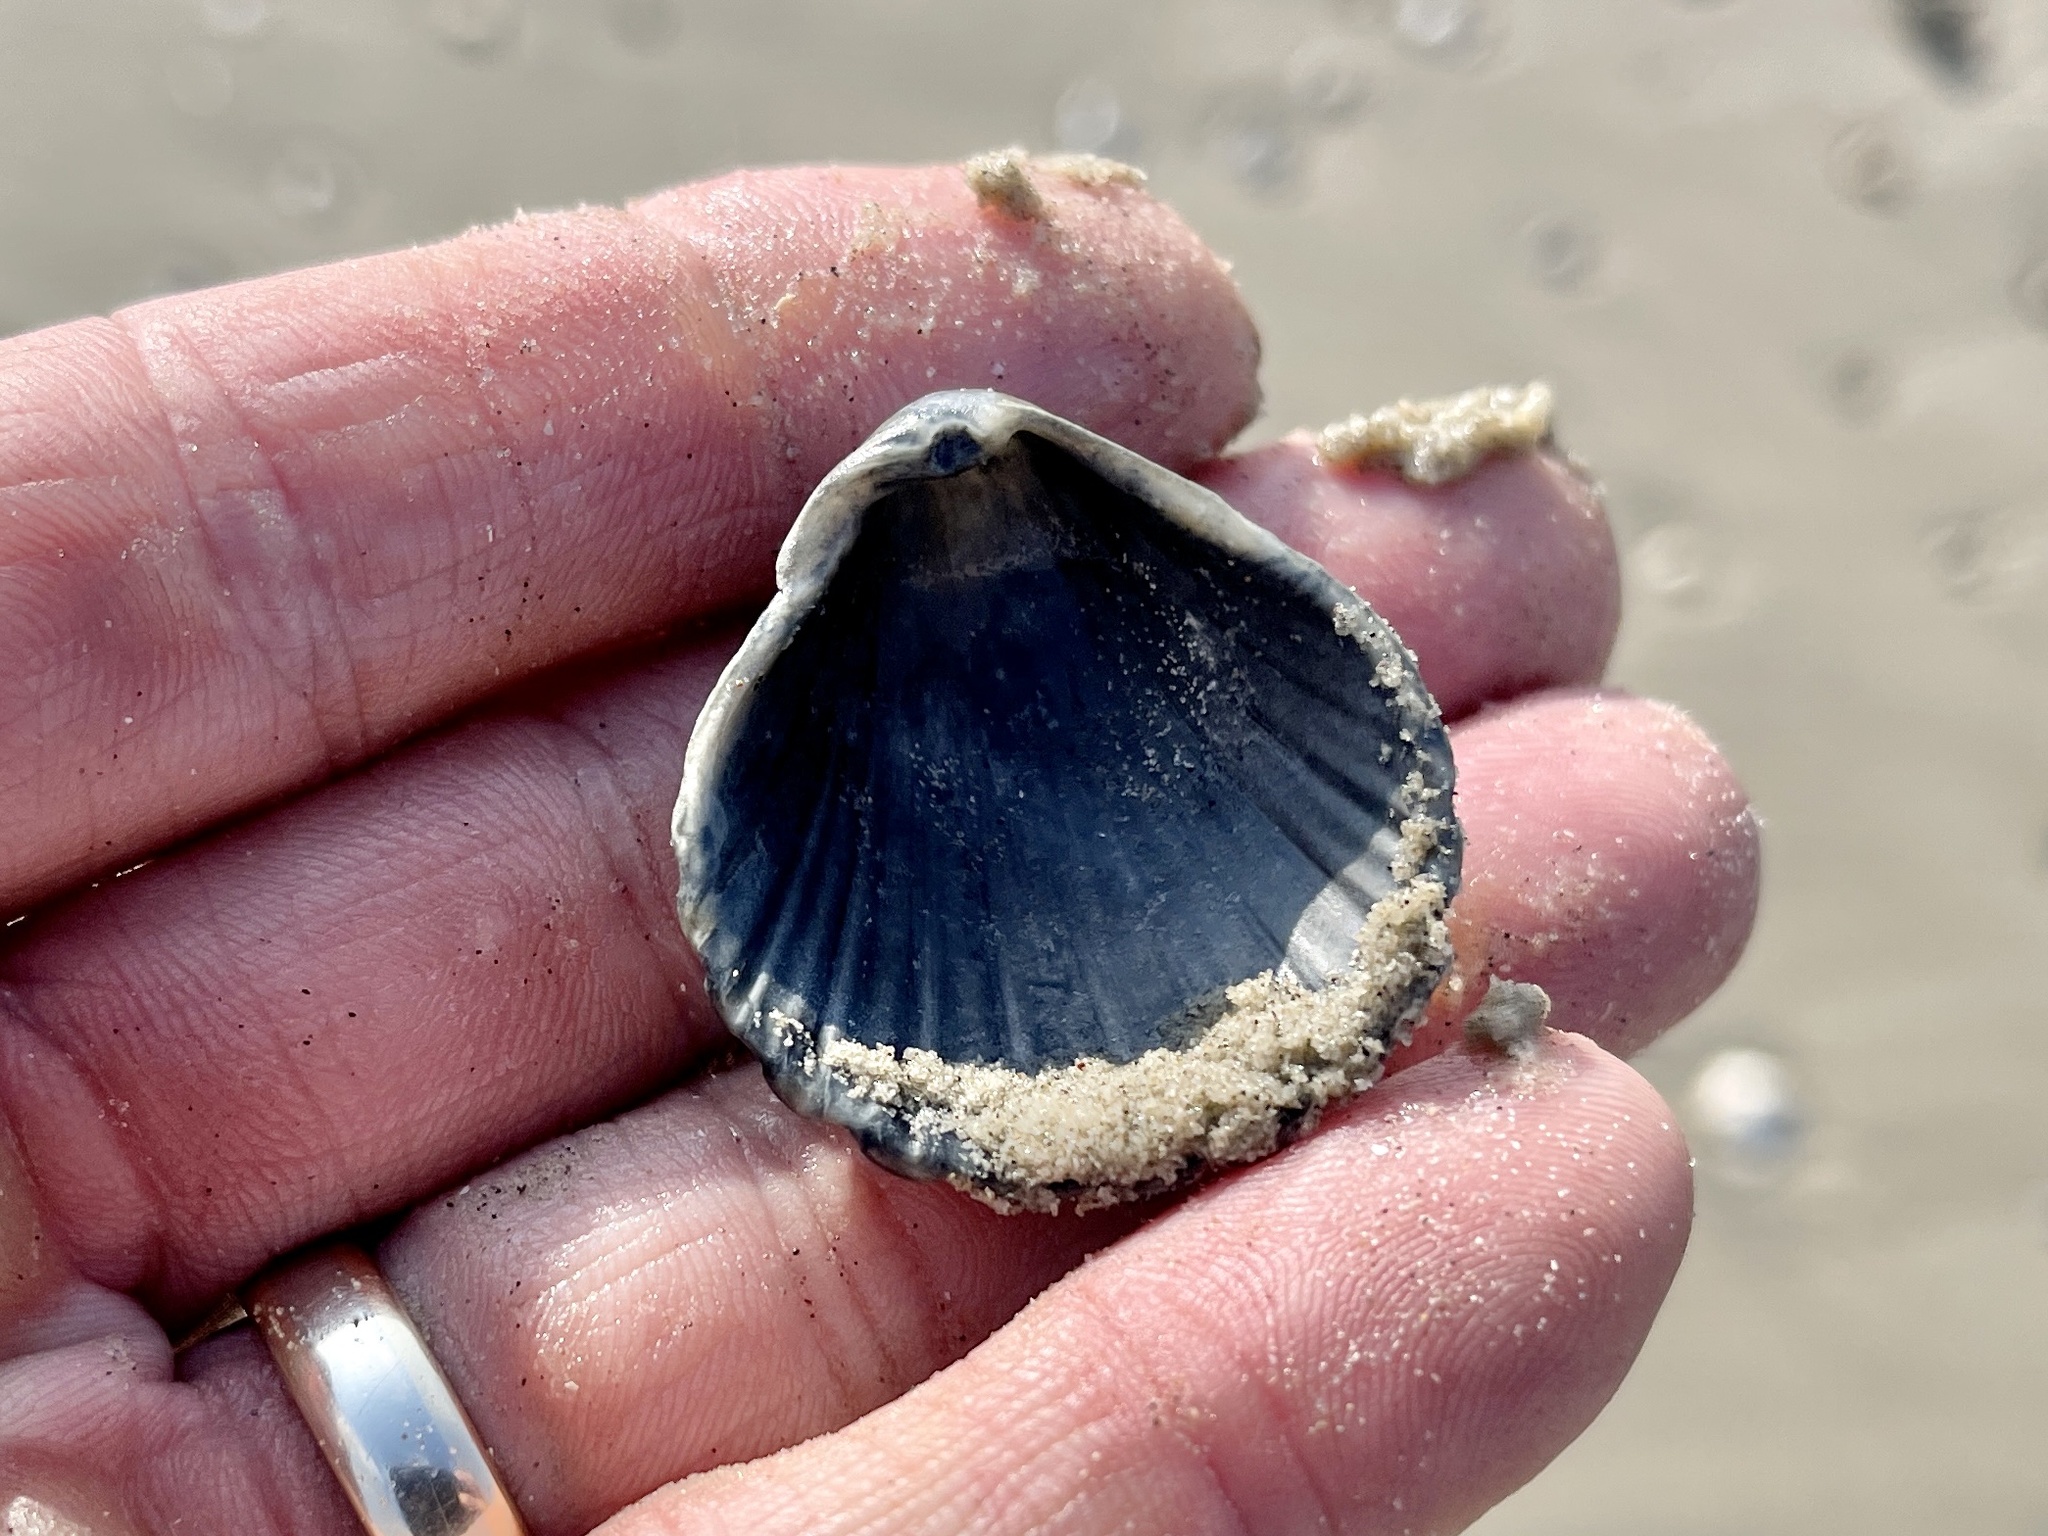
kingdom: Animalia
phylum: Mollusca
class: Bivalvia
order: Pectinida
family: Pectinidae
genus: Argopecten
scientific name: Argopecten irradians
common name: Atlantic bay scallop
